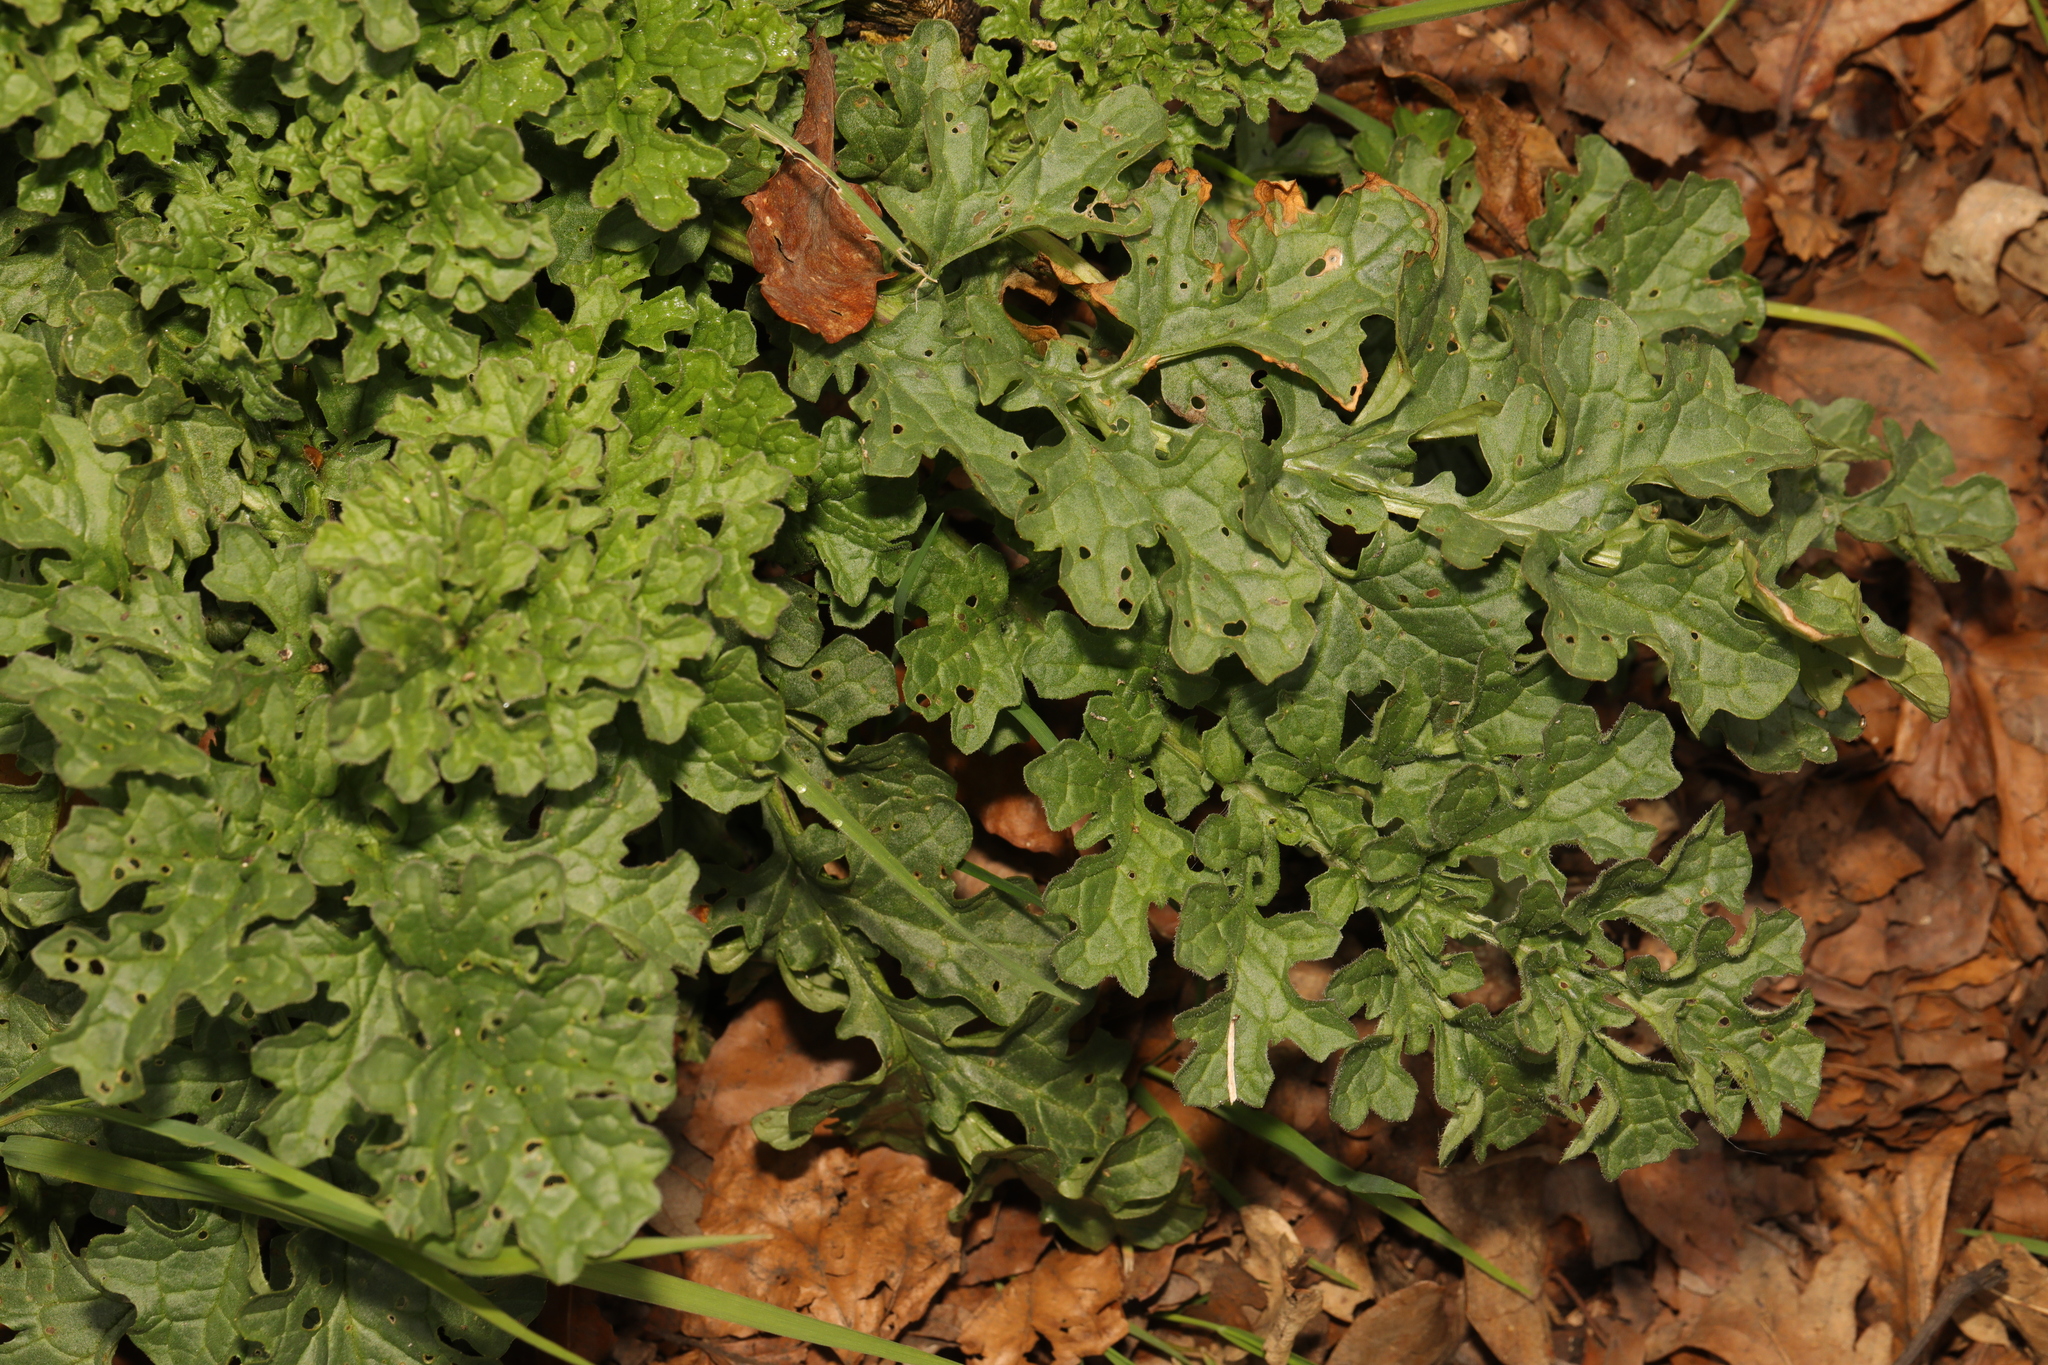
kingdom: Plantae
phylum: Tracheophyta
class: Magnoliopsida
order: Asterales
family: Asteraceae
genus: Jacobaea
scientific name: Jacobaea vulgaris
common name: Stinking willie
